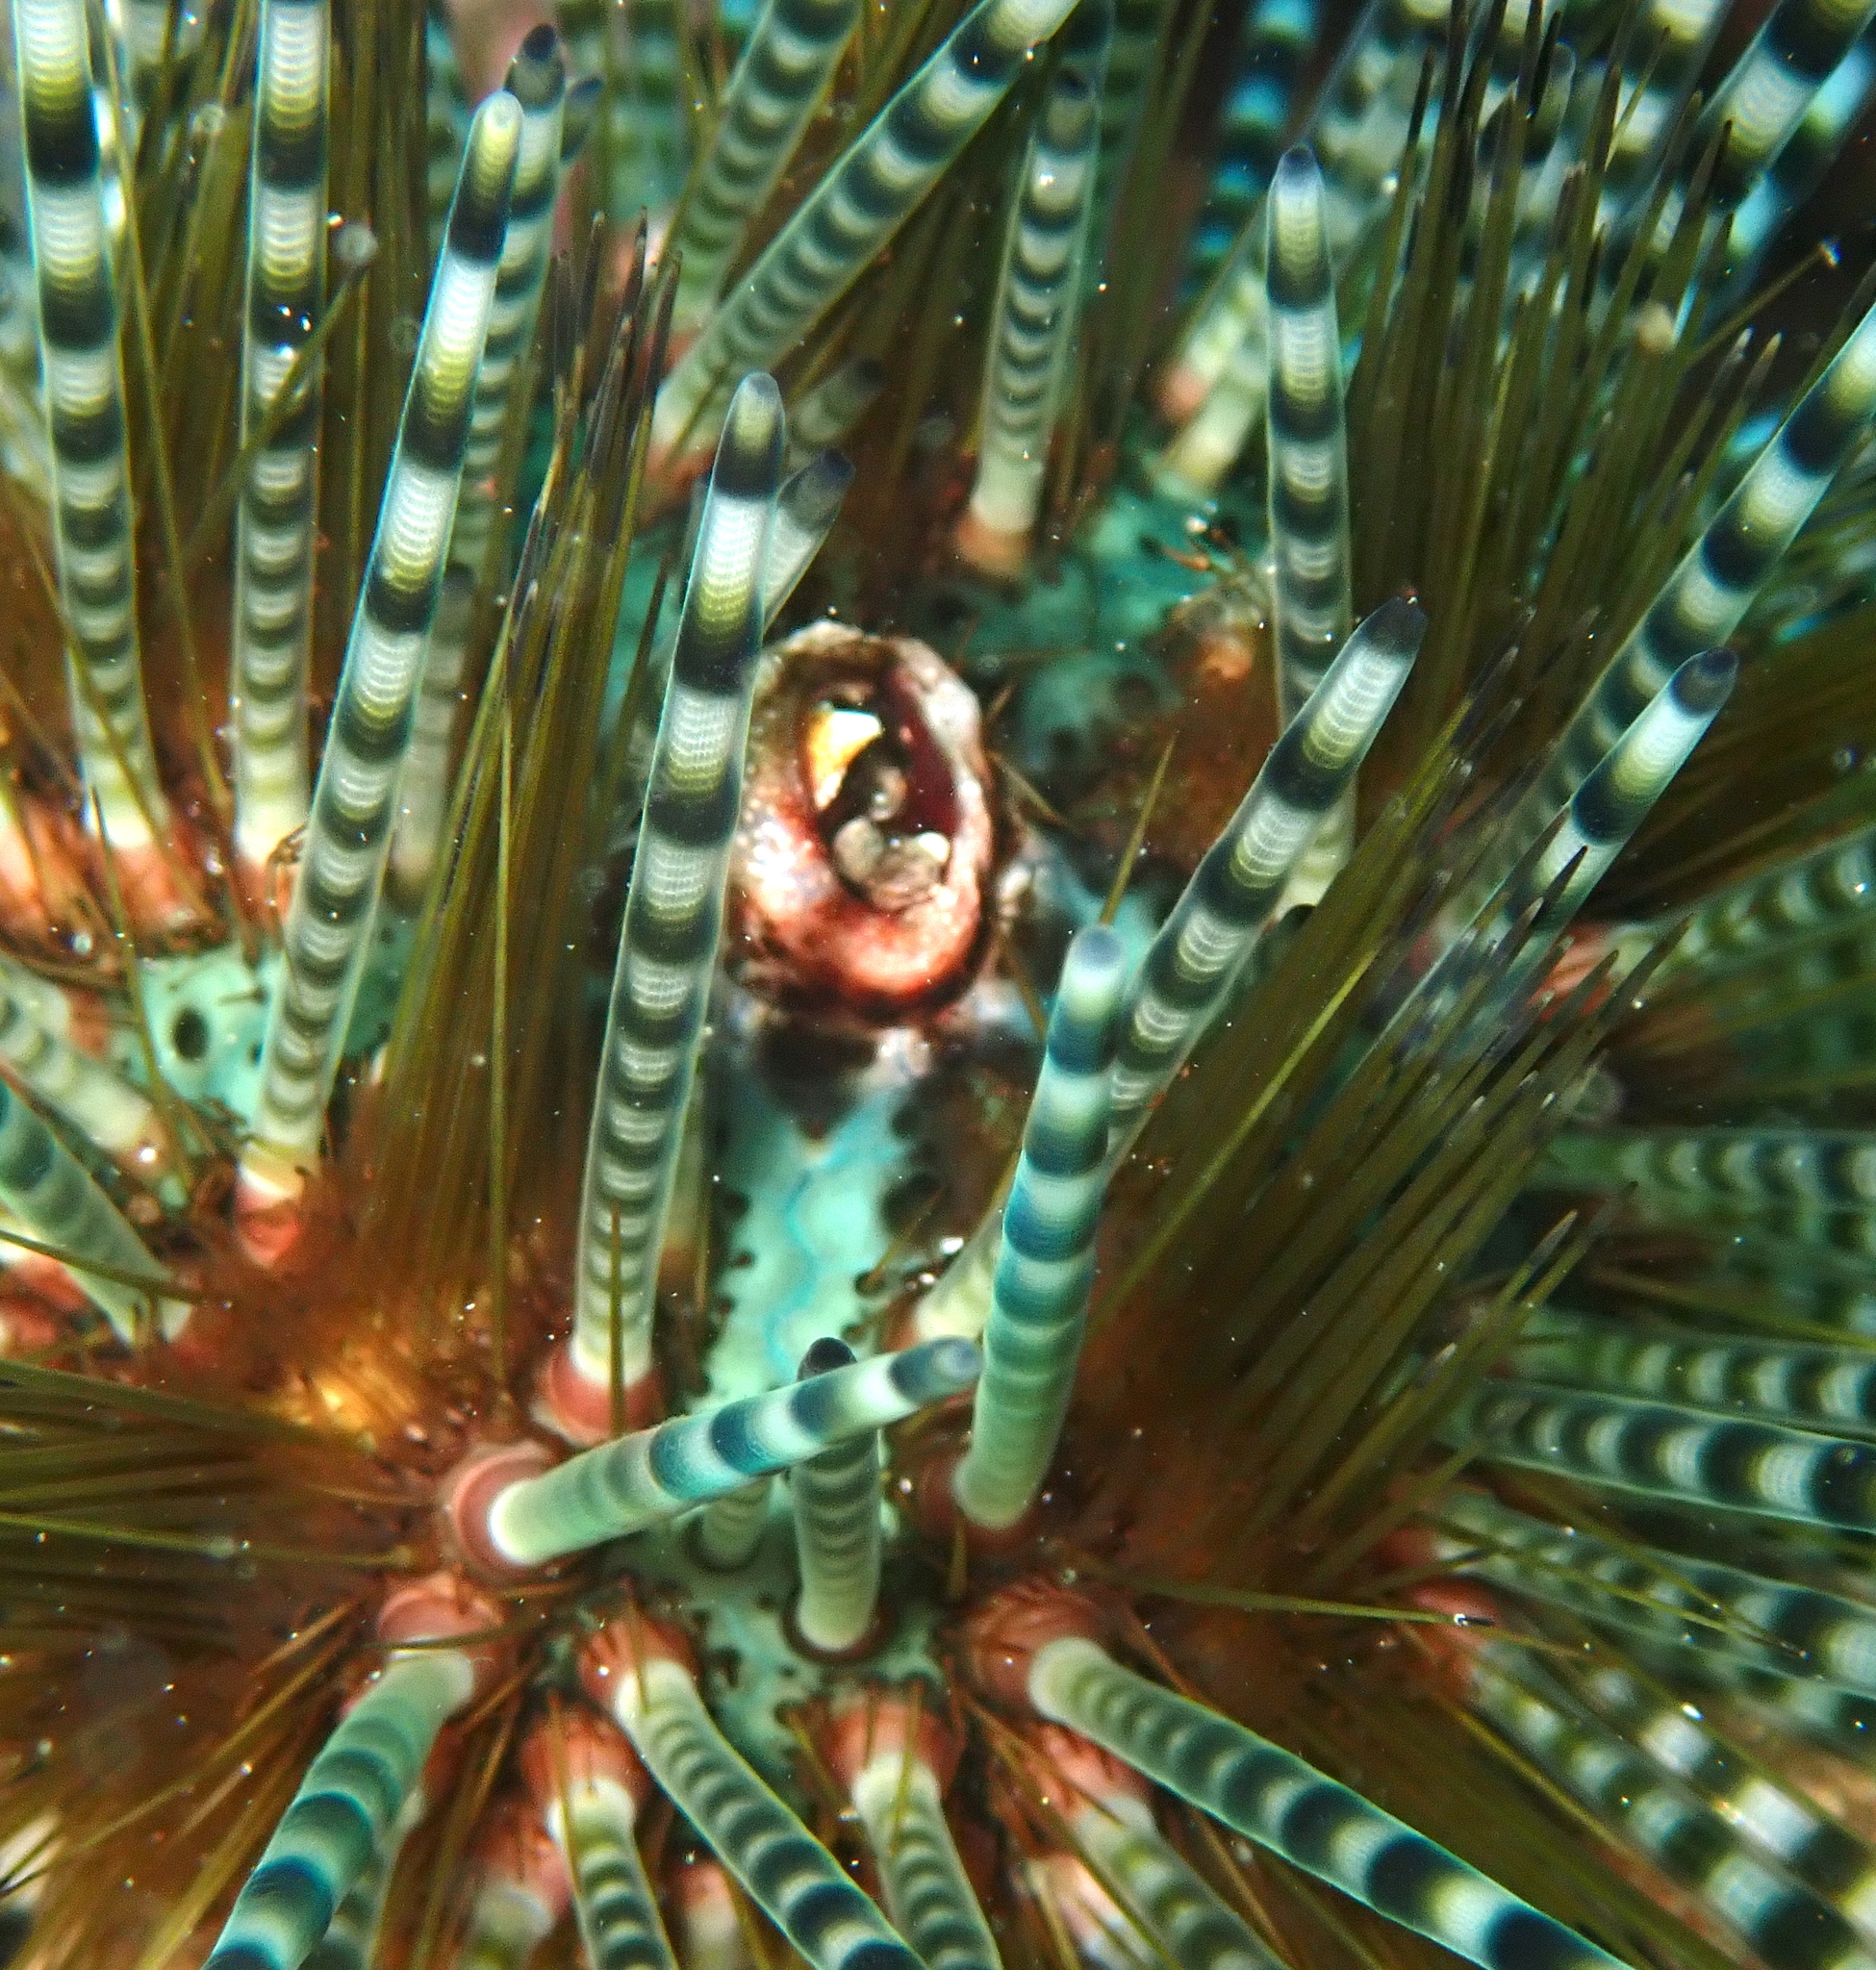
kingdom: Animalia
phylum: Echinodermata
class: Echinoidea
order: Diadematoida
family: Diadematidae
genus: Echinothrix
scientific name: Echinothrix calamaris
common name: Banded sea urchin
